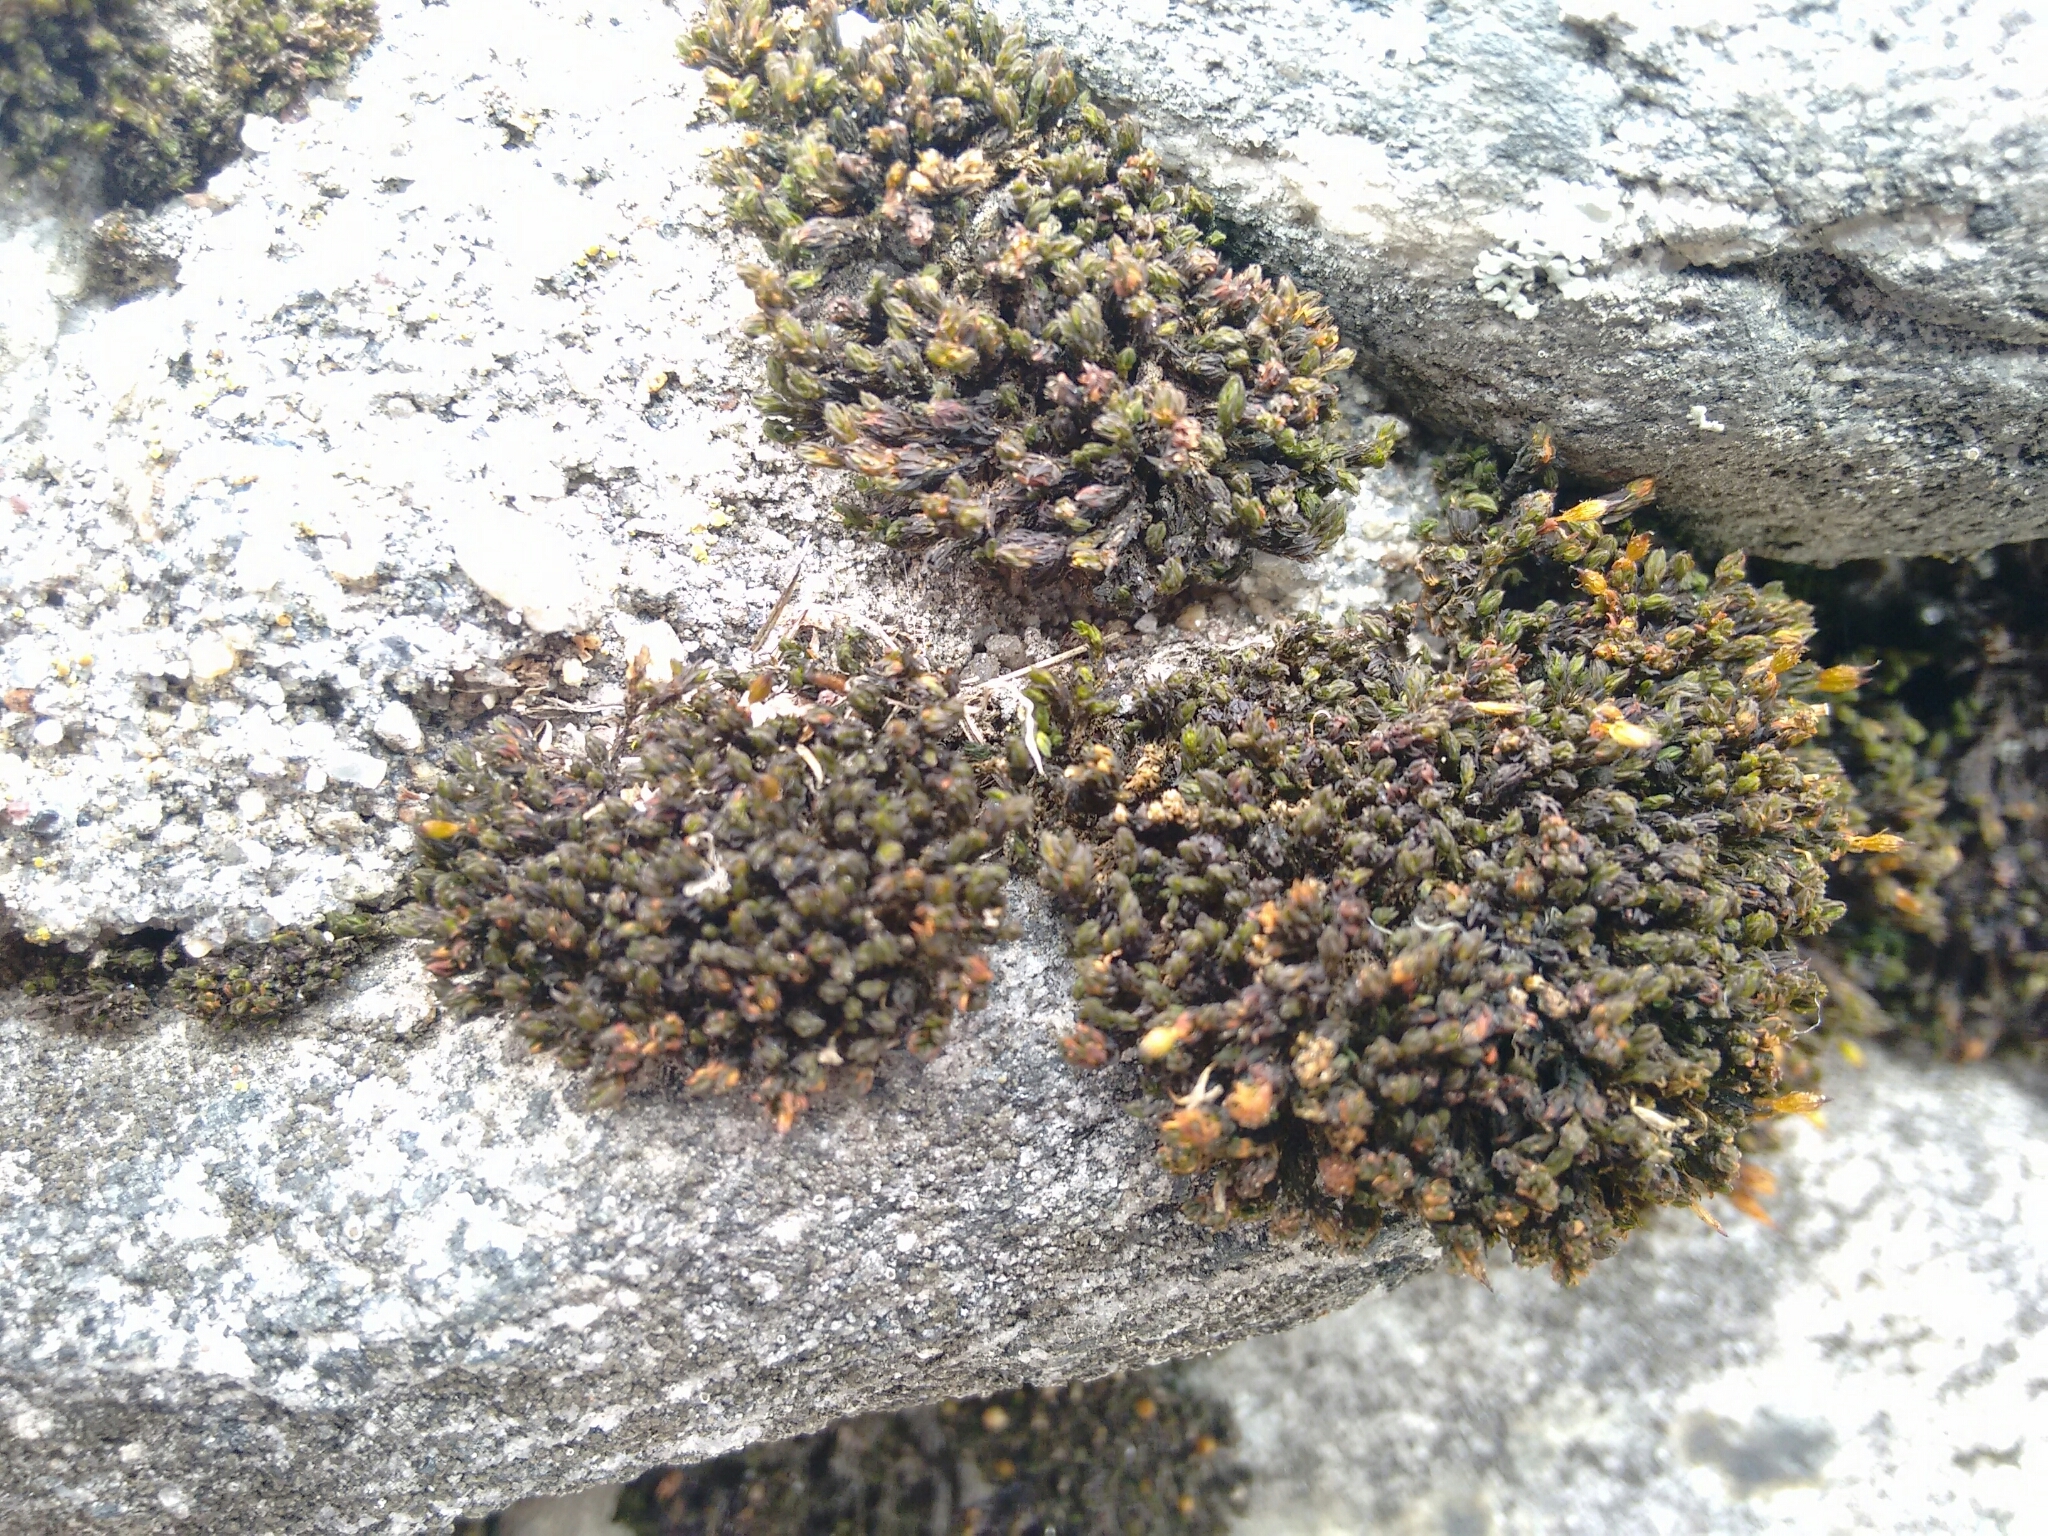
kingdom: Plantae
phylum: Bryophyta
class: Bryopsida
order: Orthotrichales
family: Orthotrichaceae
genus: Orthotrichum
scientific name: Orthotrichum anomalum
